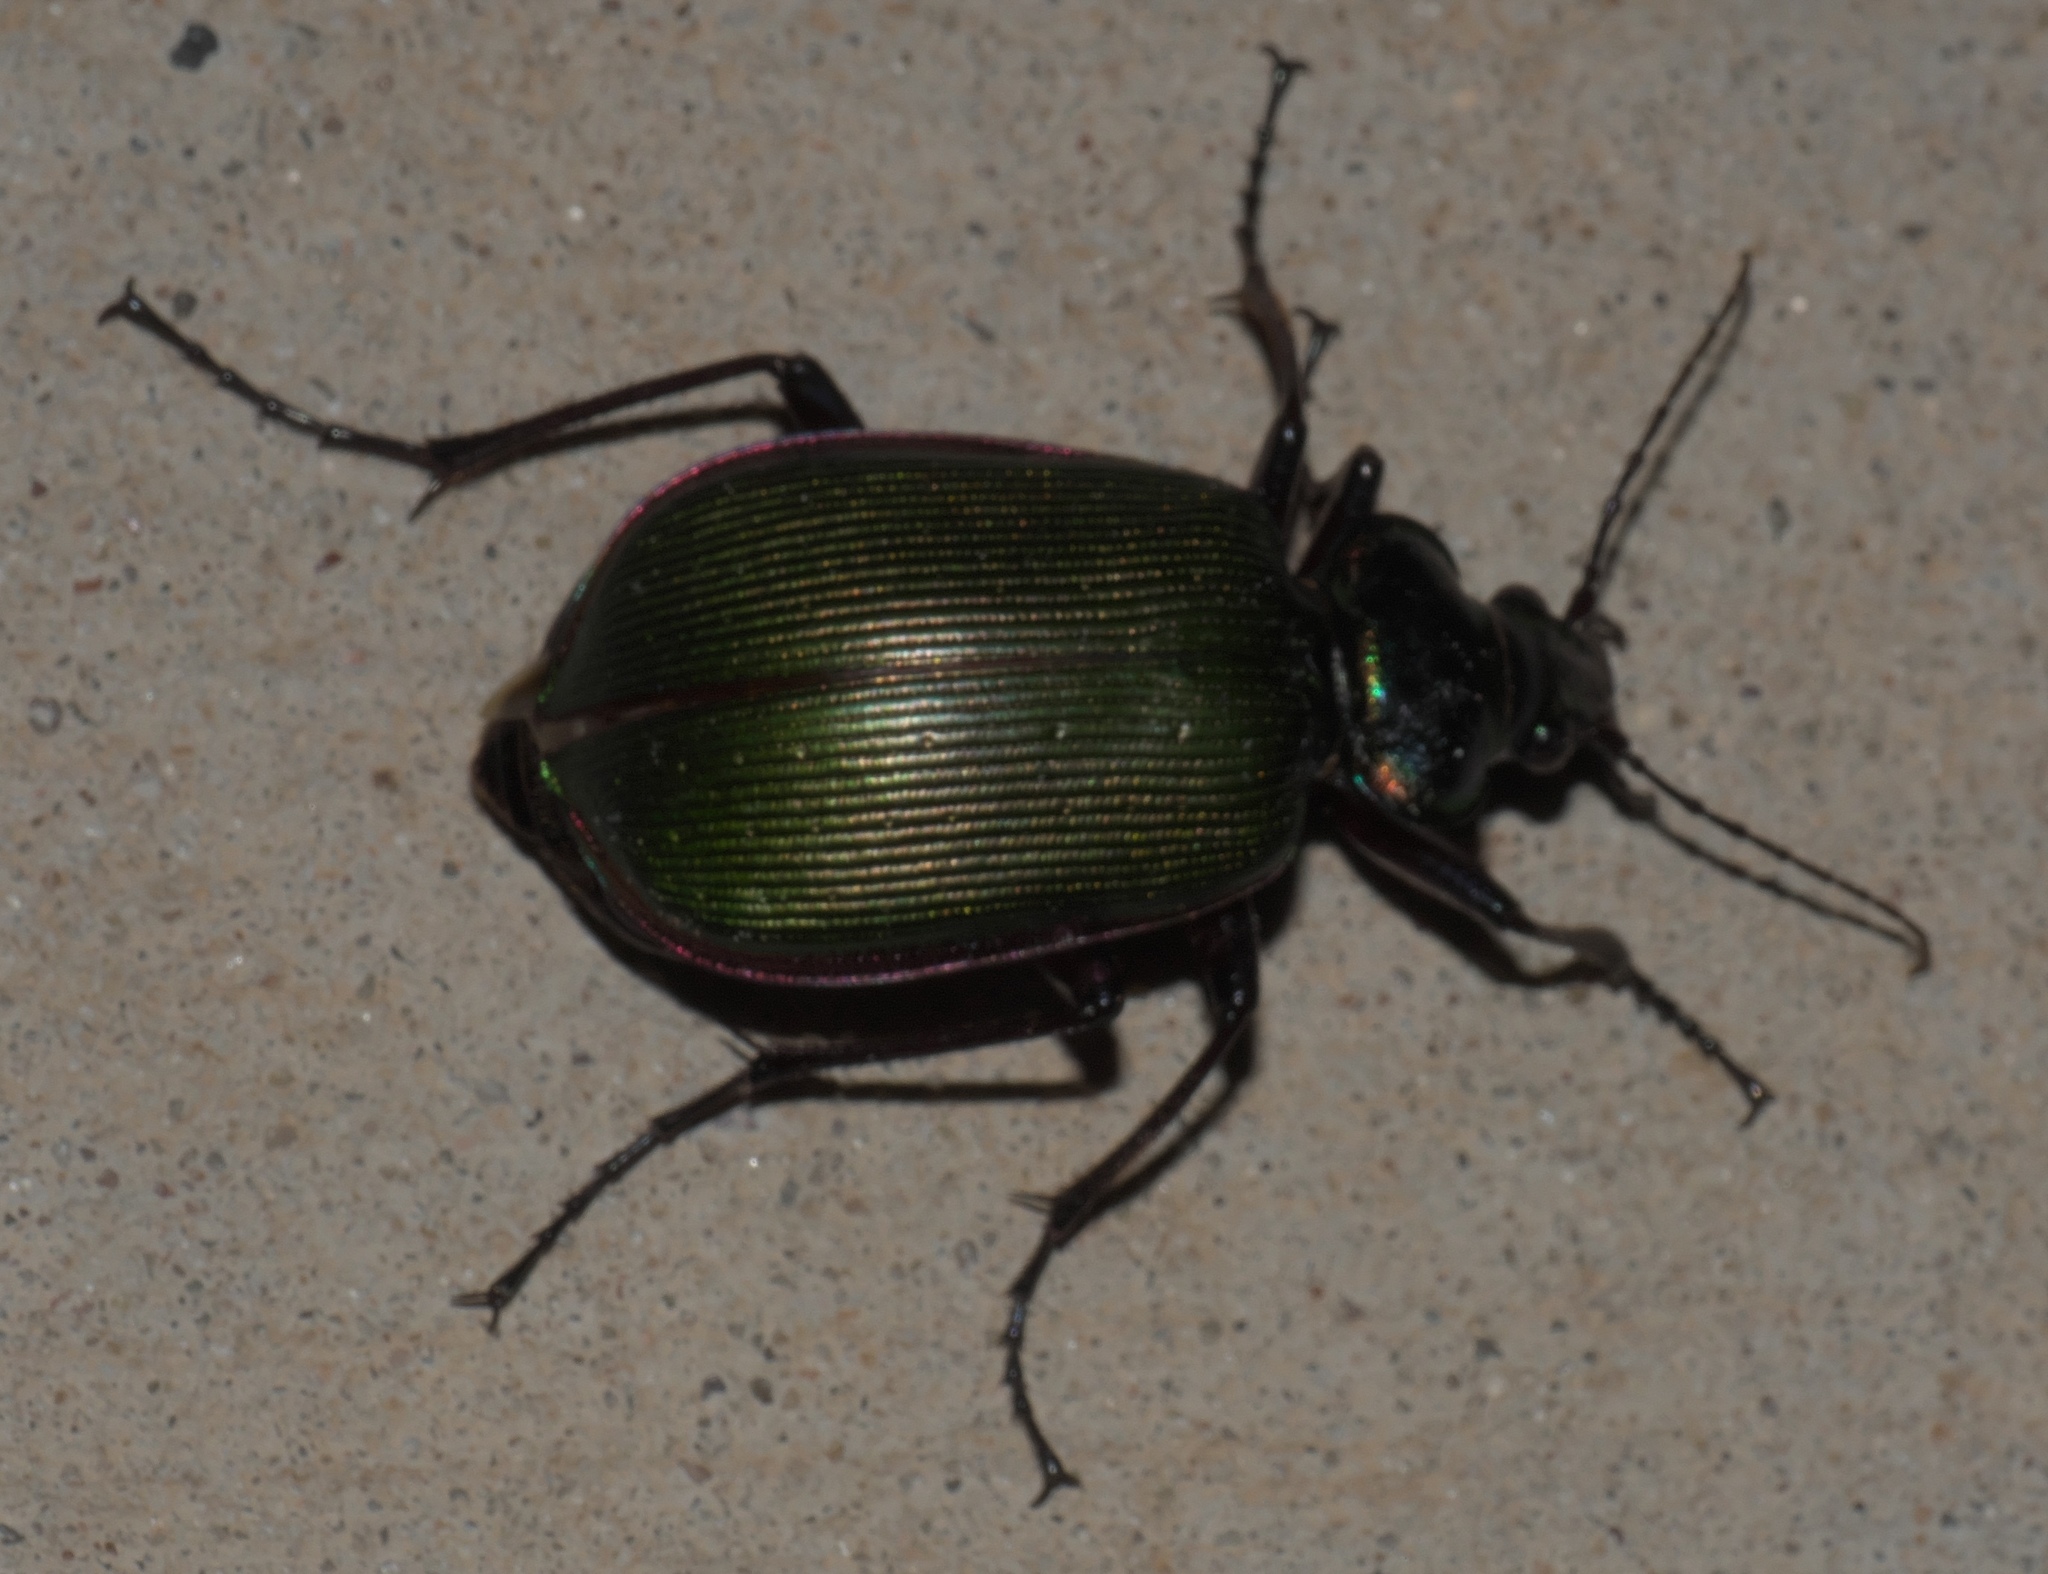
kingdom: Animalia
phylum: Arthropoda
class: Insecta
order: Coleoptera
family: Carabidae
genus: Calosoma
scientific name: Calosoma scrutator
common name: Fiery searcher beetle
